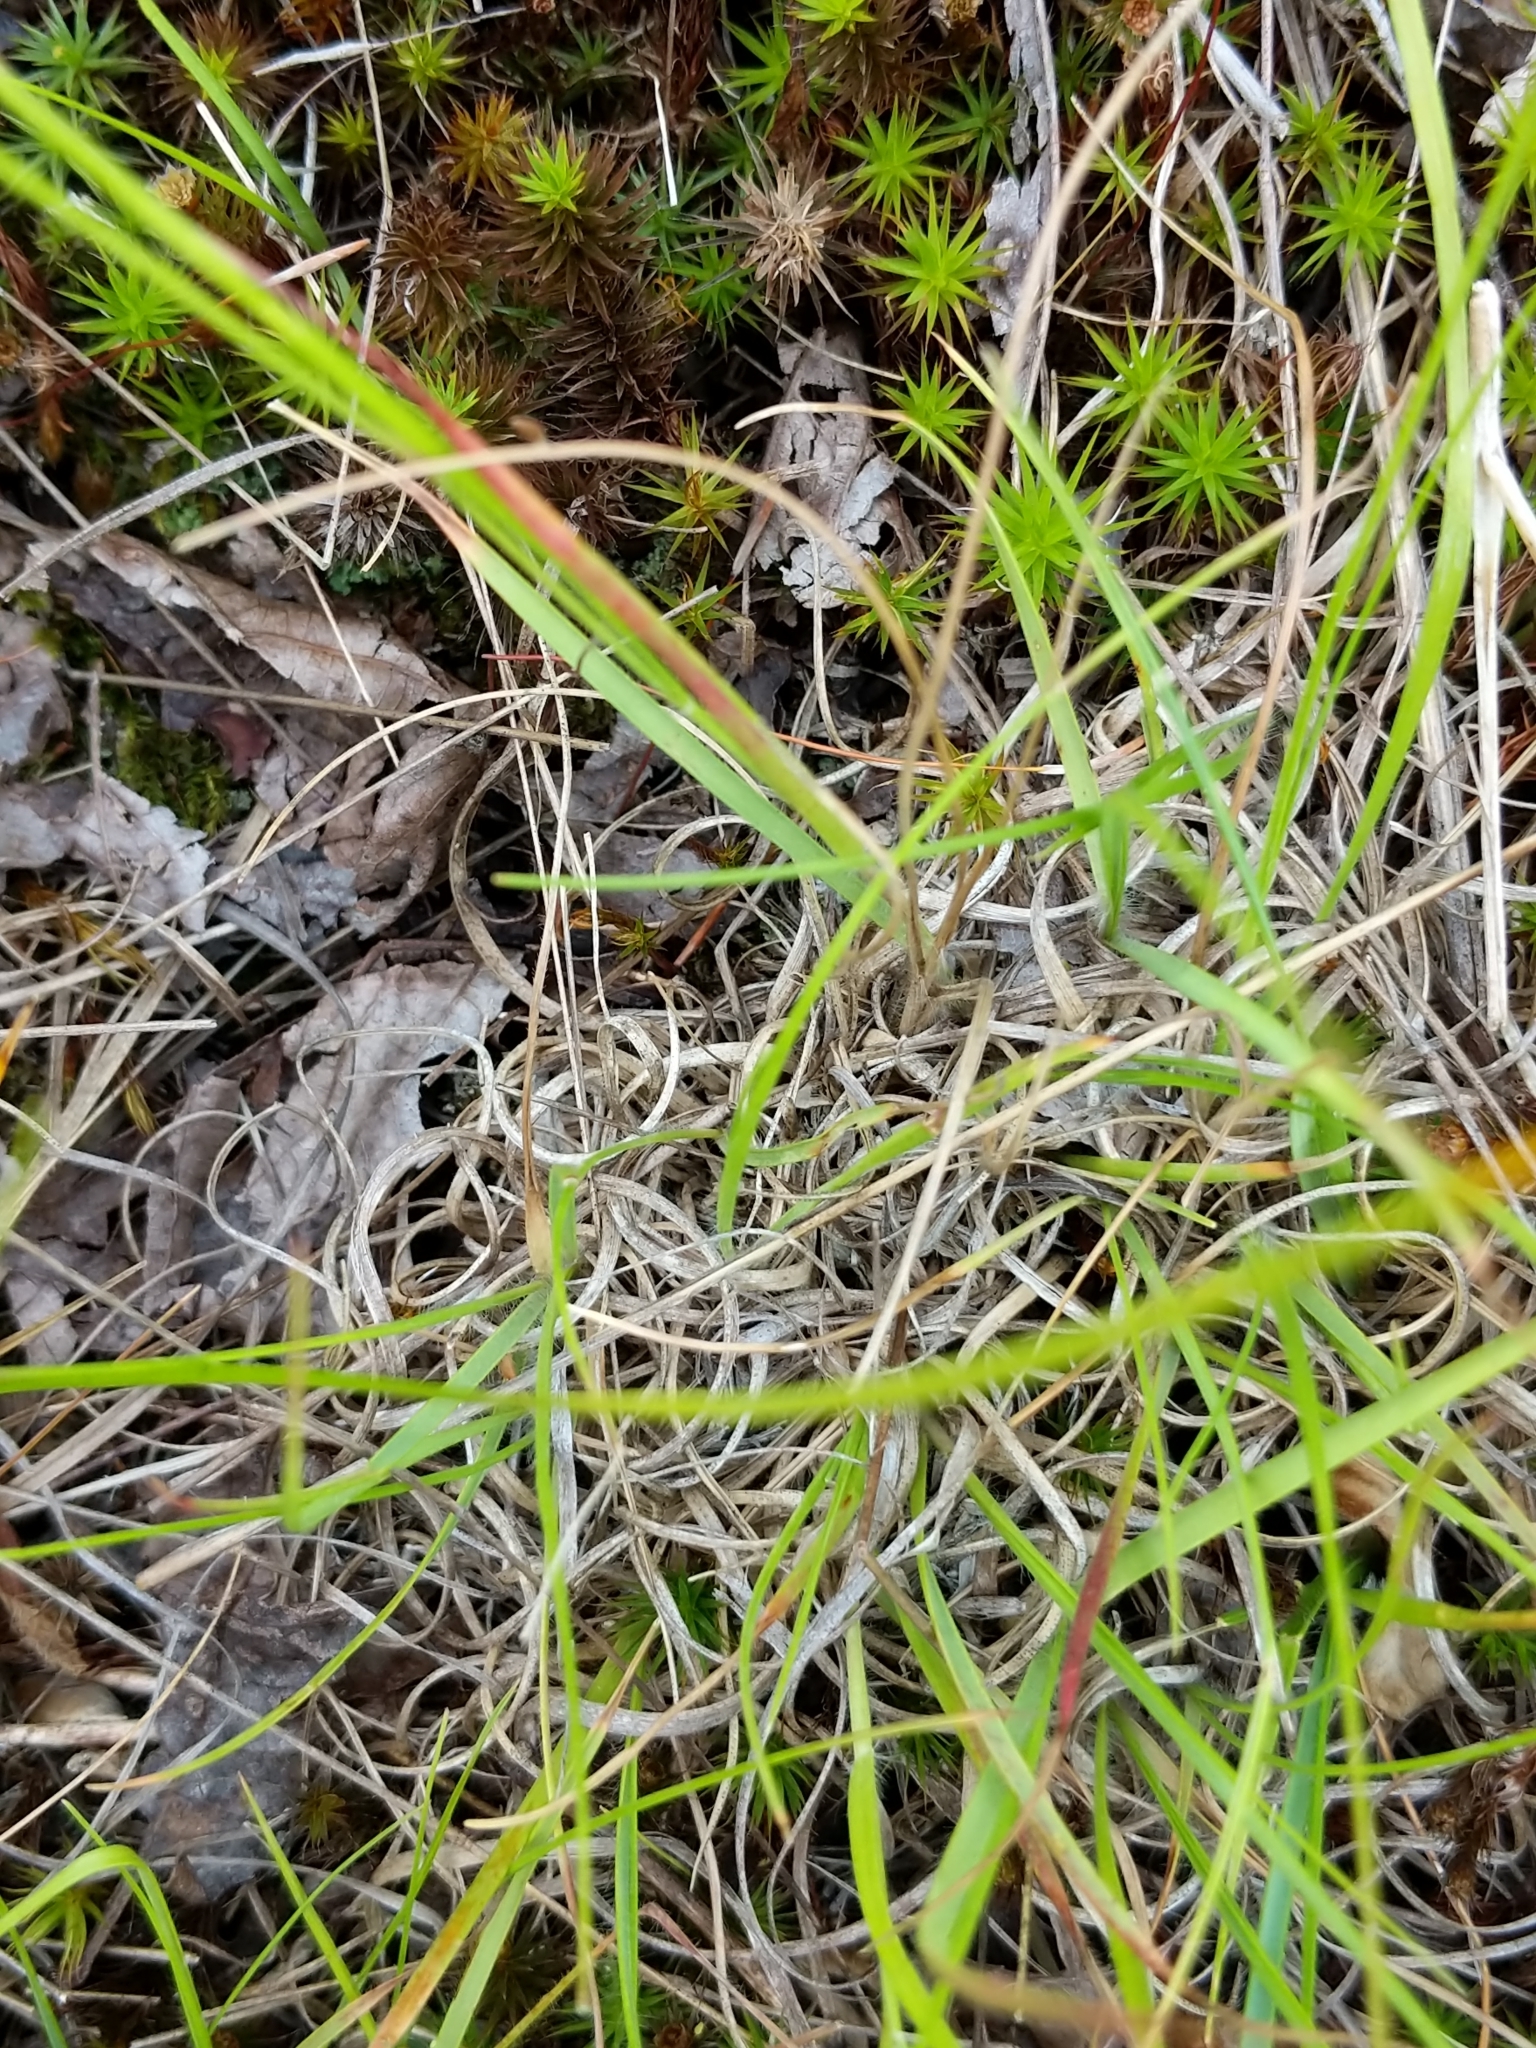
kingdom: Plantae
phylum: Tracheophyta
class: Liliopsida
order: Poales
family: Poaceae
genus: Danthonia
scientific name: Danthonia spicata
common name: Common wild oatgrass
